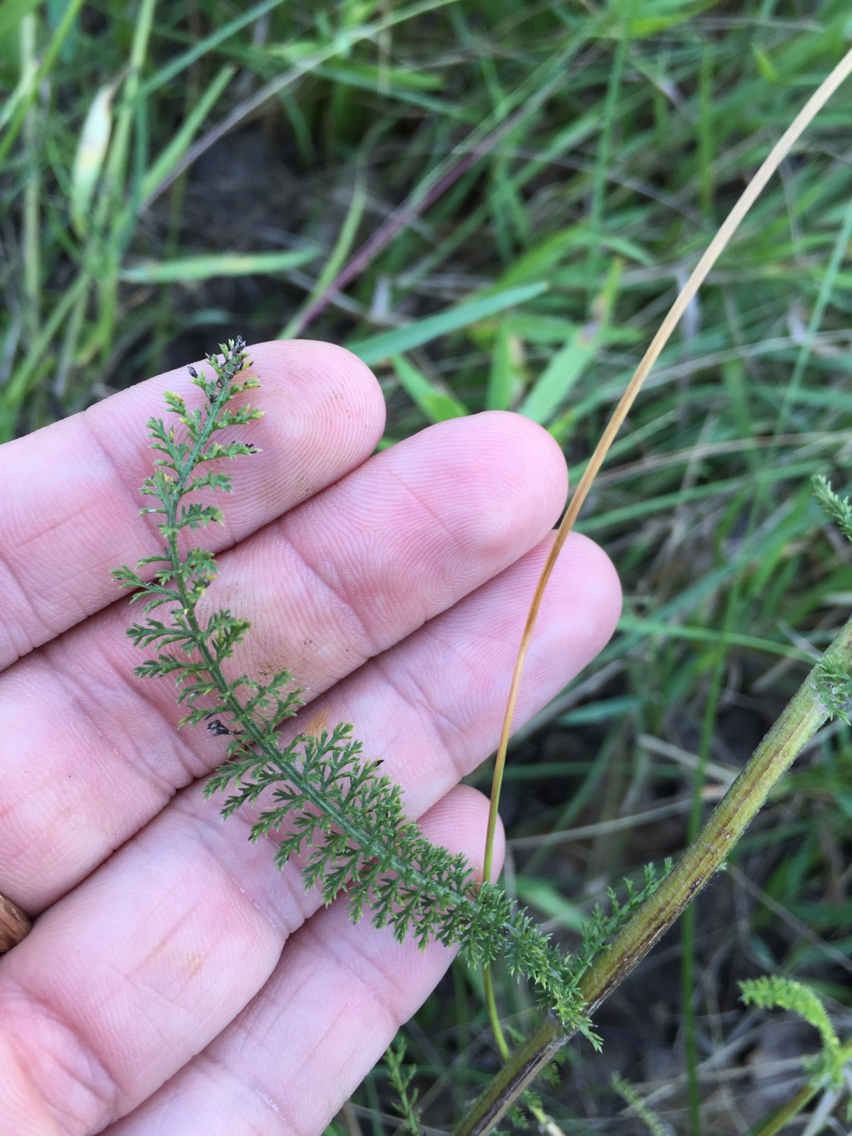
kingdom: Plantae
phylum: Tracheophyta
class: Magnoliopsida
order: Asterales
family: Asteraceae
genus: Achillea
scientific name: Achillea millefolium
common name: Yarrow
